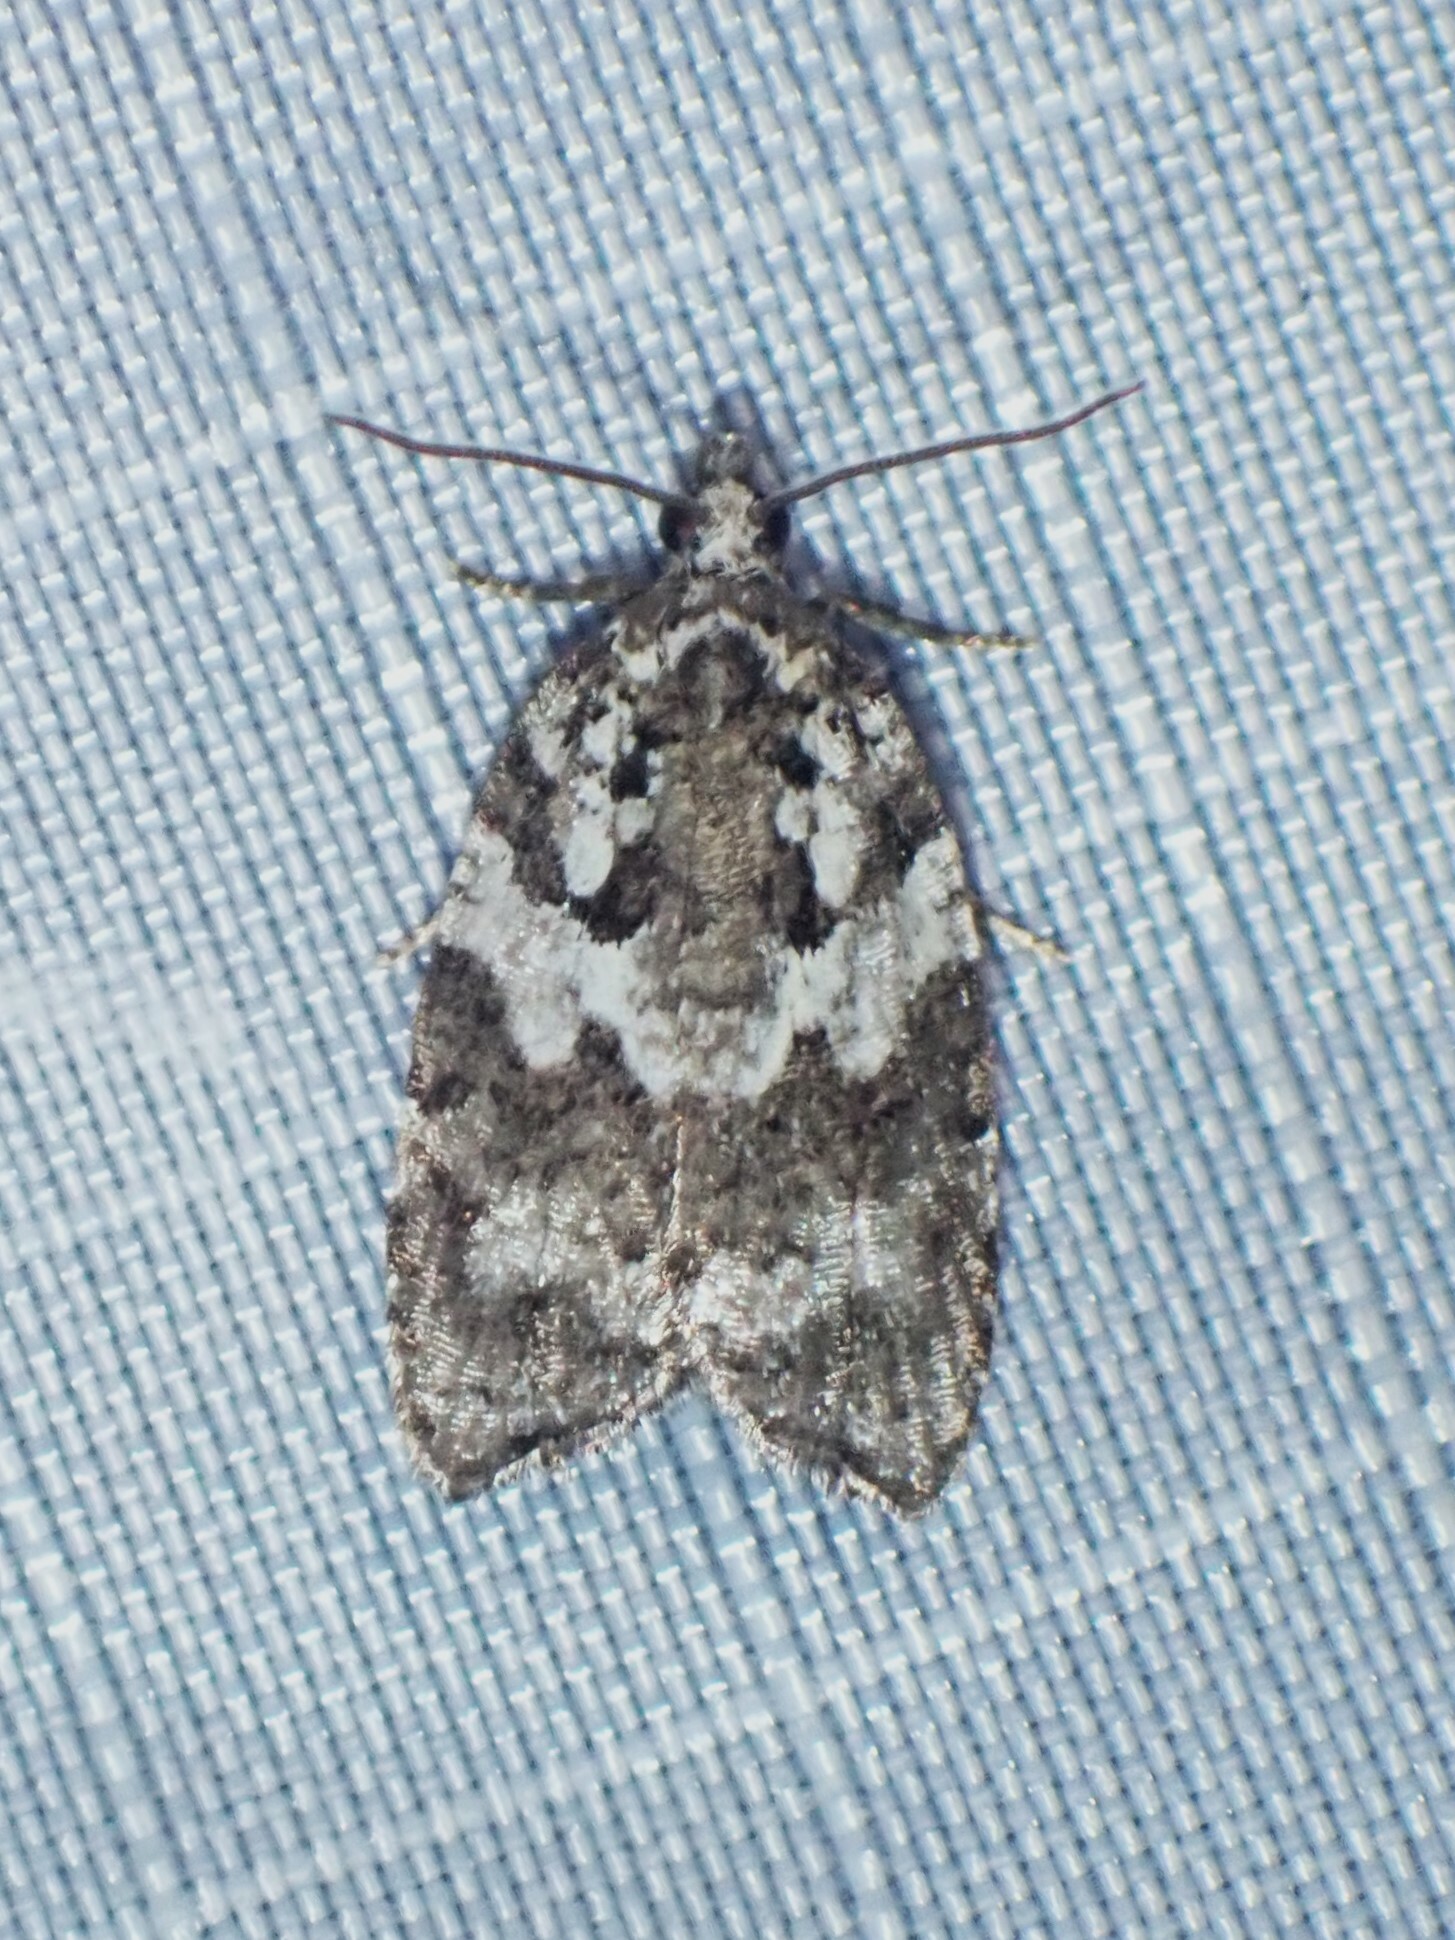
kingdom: Animalia
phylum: Arthropoda
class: Insecta
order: Lepidoptera
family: Tortricidae
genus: Acleris
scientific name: Acleris variana
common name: Eastern black-headed budworm moth
